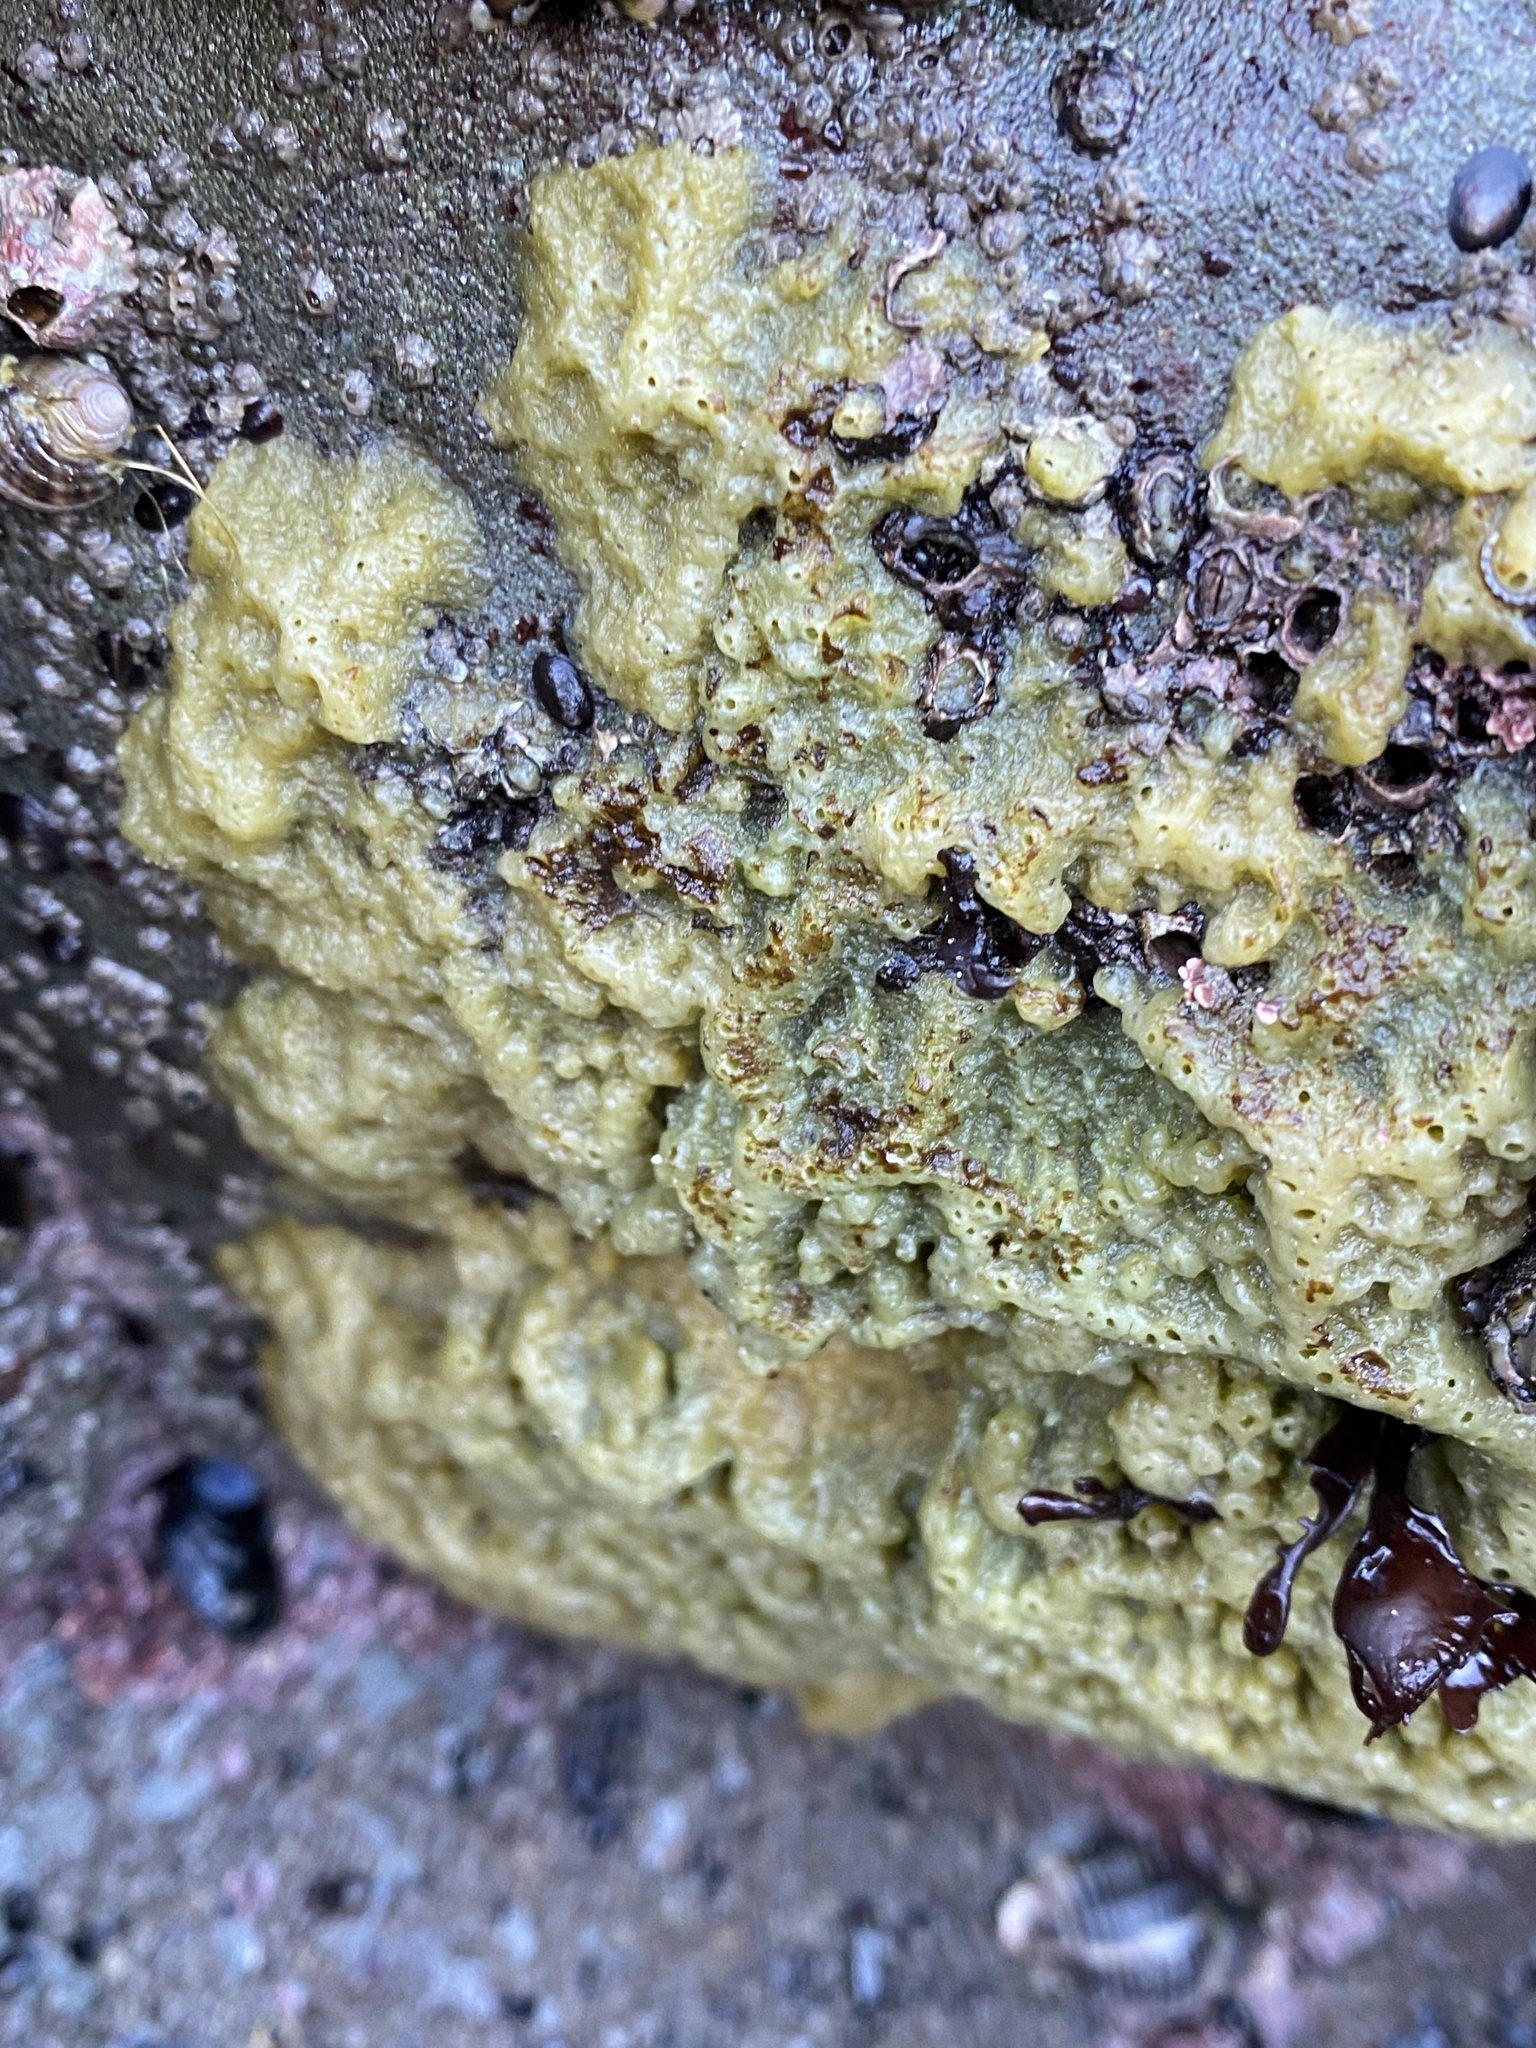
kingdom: Animalia
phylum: Porifera
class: Demospongiae
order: Suberitida
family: Halichondriidae
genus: Halichondria
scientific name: Halichondria panicea
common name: Breadcrumb sponge
